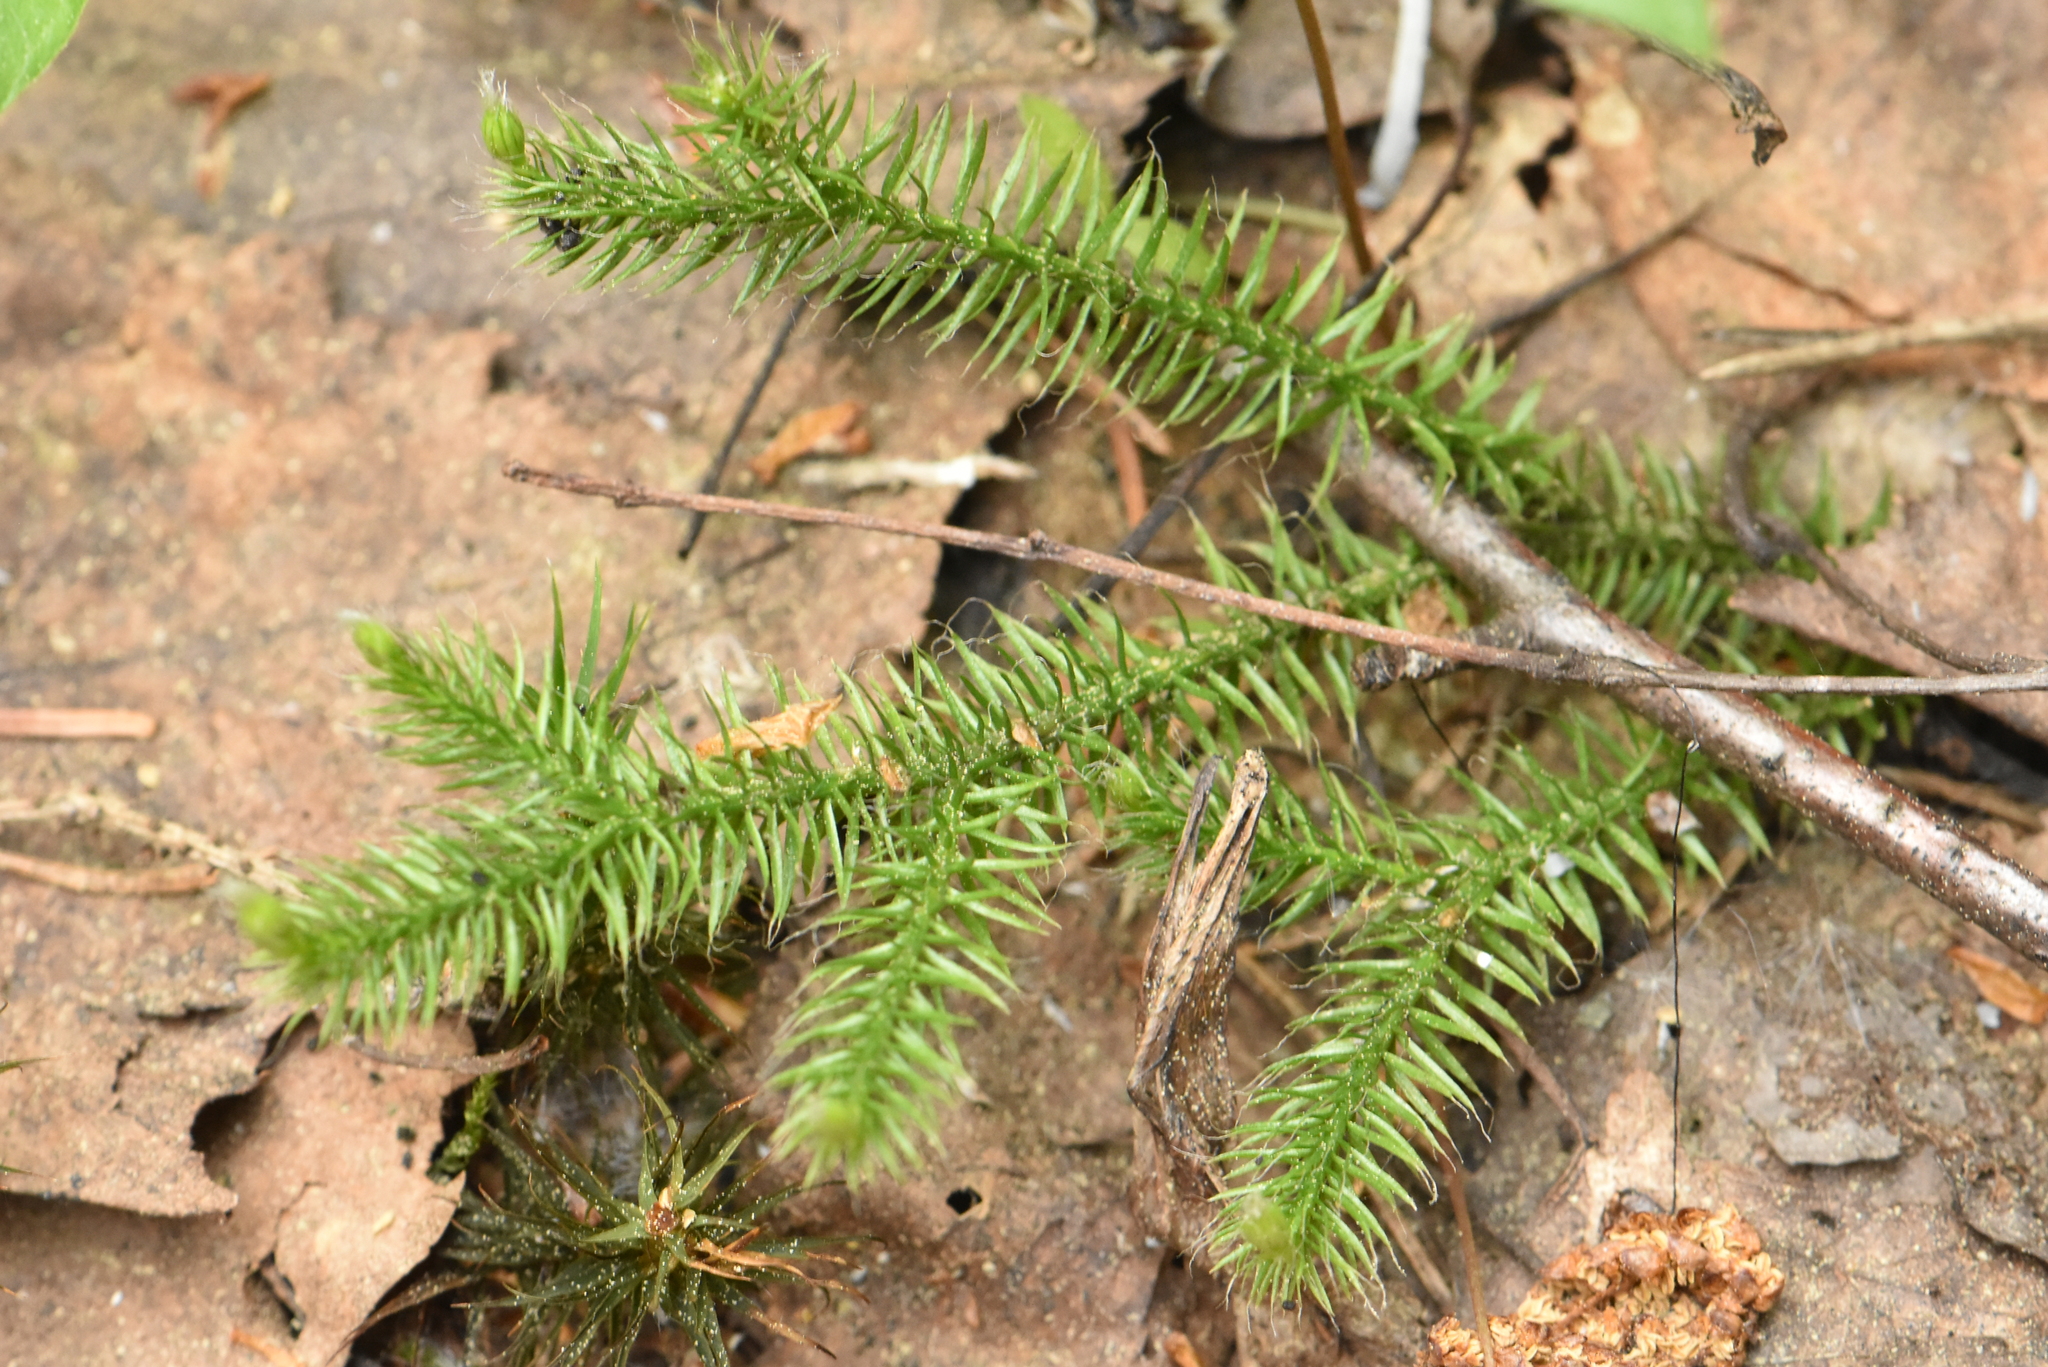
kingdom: Plantae
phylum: Tracheophyta
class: Lycopodiopsida
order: Lycopodiales
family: Lycopodiaceae
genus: Lycopodium
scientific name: Lycopodium clavatum
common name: Stag's-horn clubmoss
